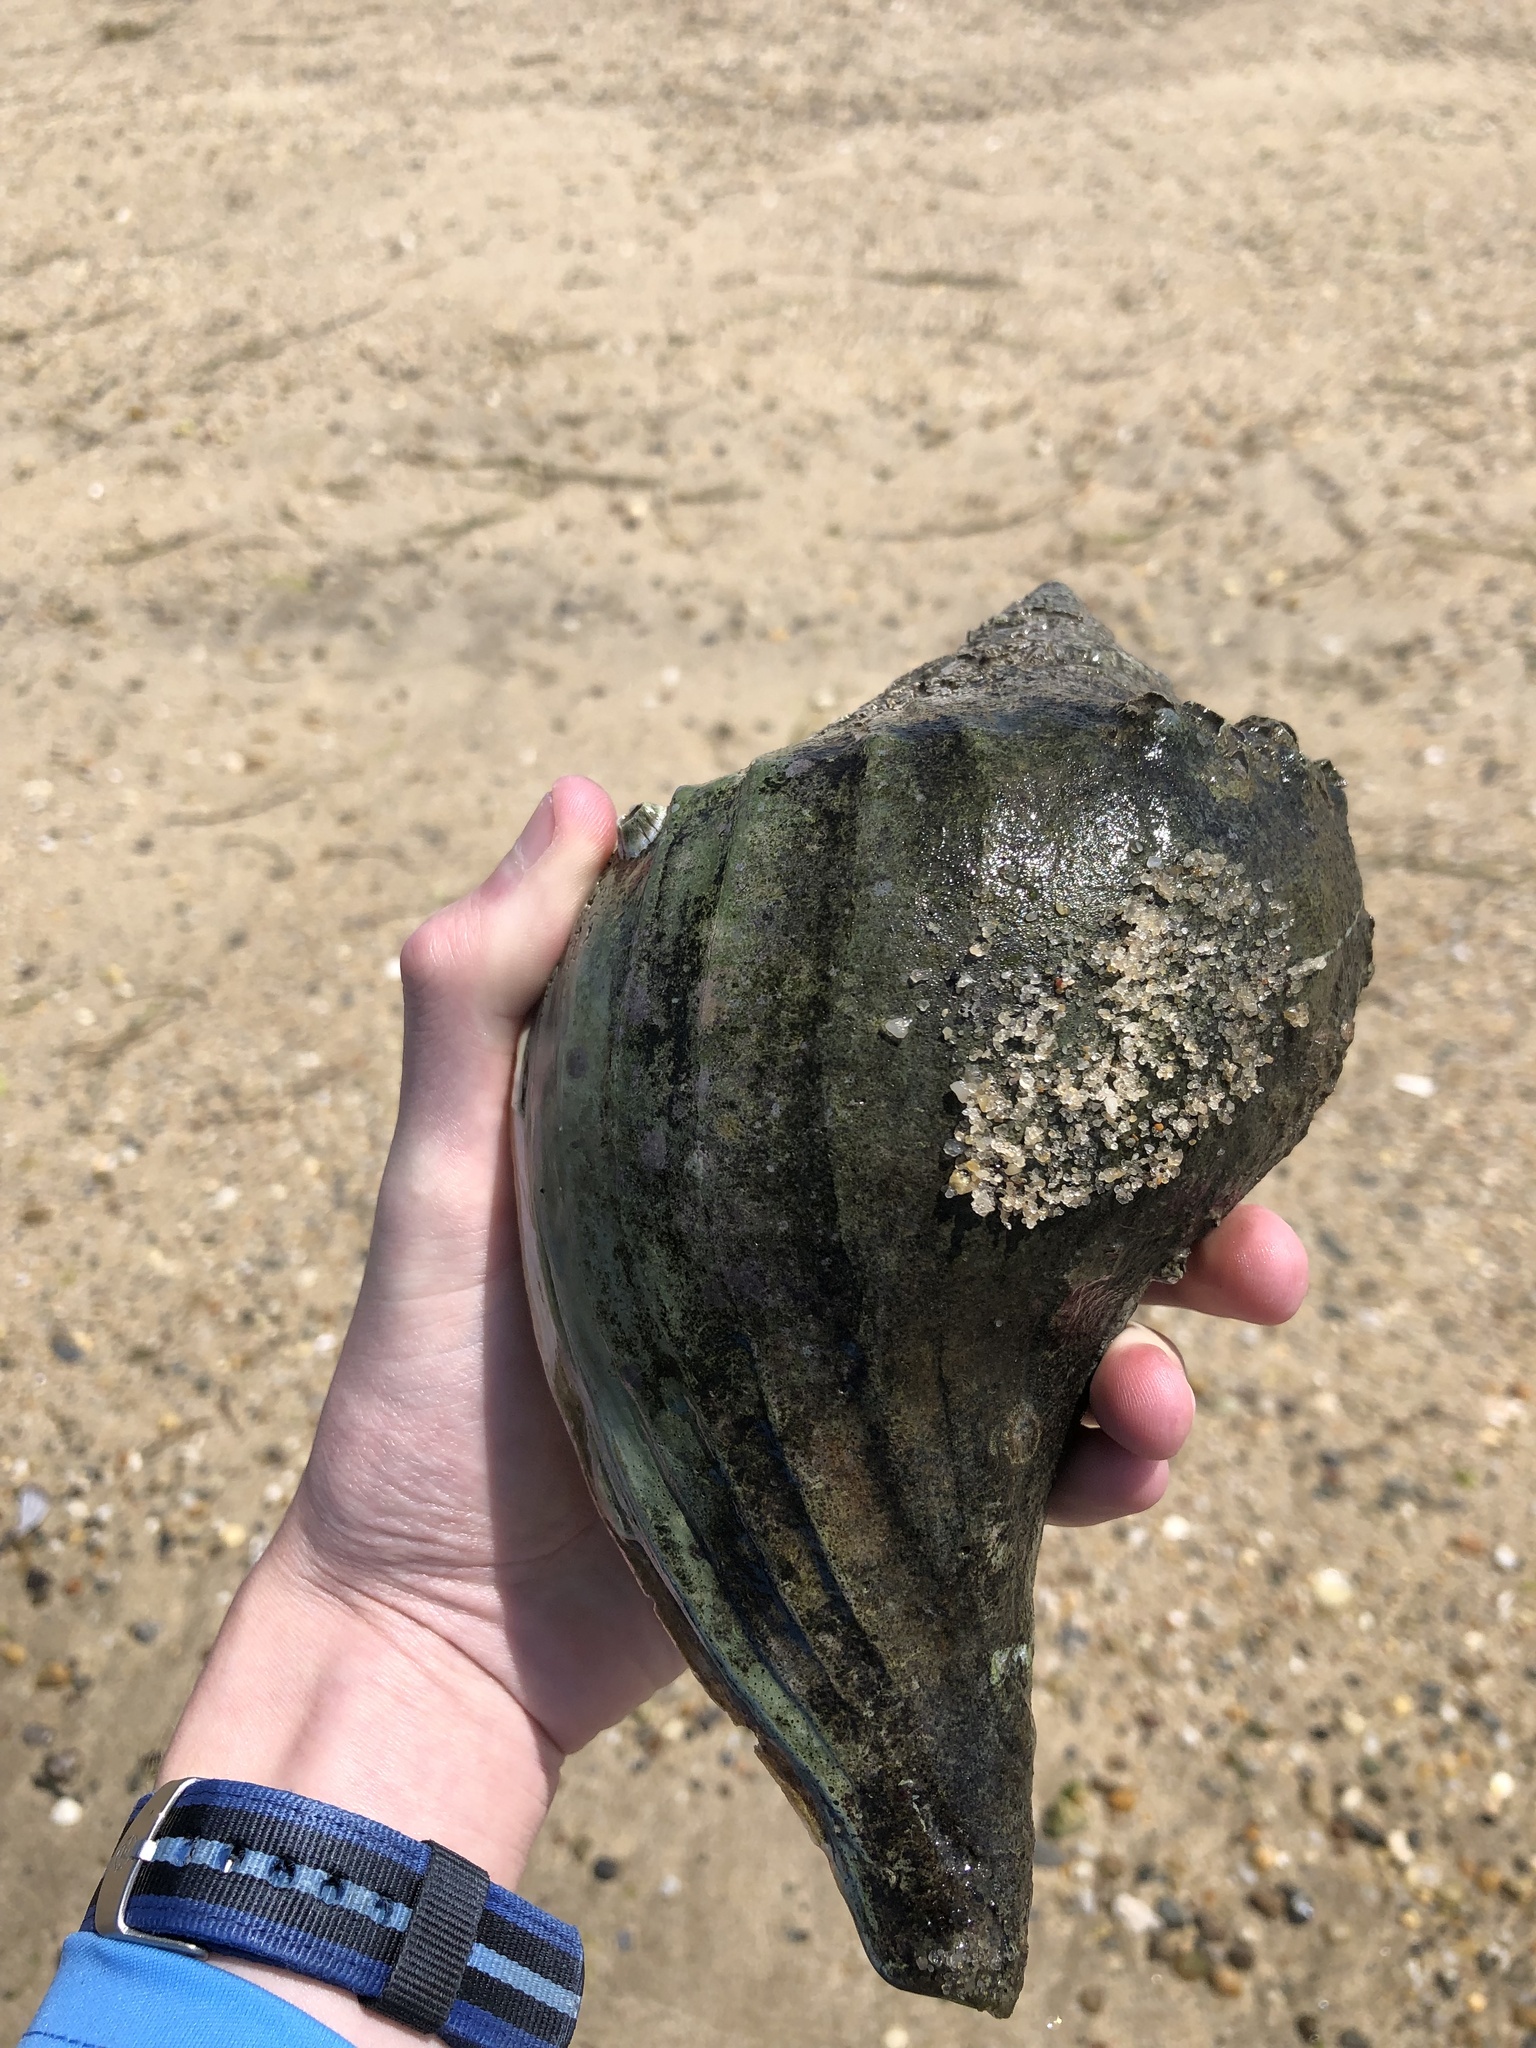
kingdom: Animalia
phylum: Mollusca
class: Gastropoda
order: Neogastropoda
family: Busyconidae
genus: Busycon
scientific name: Busycon carica
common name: Knobbed whelk
